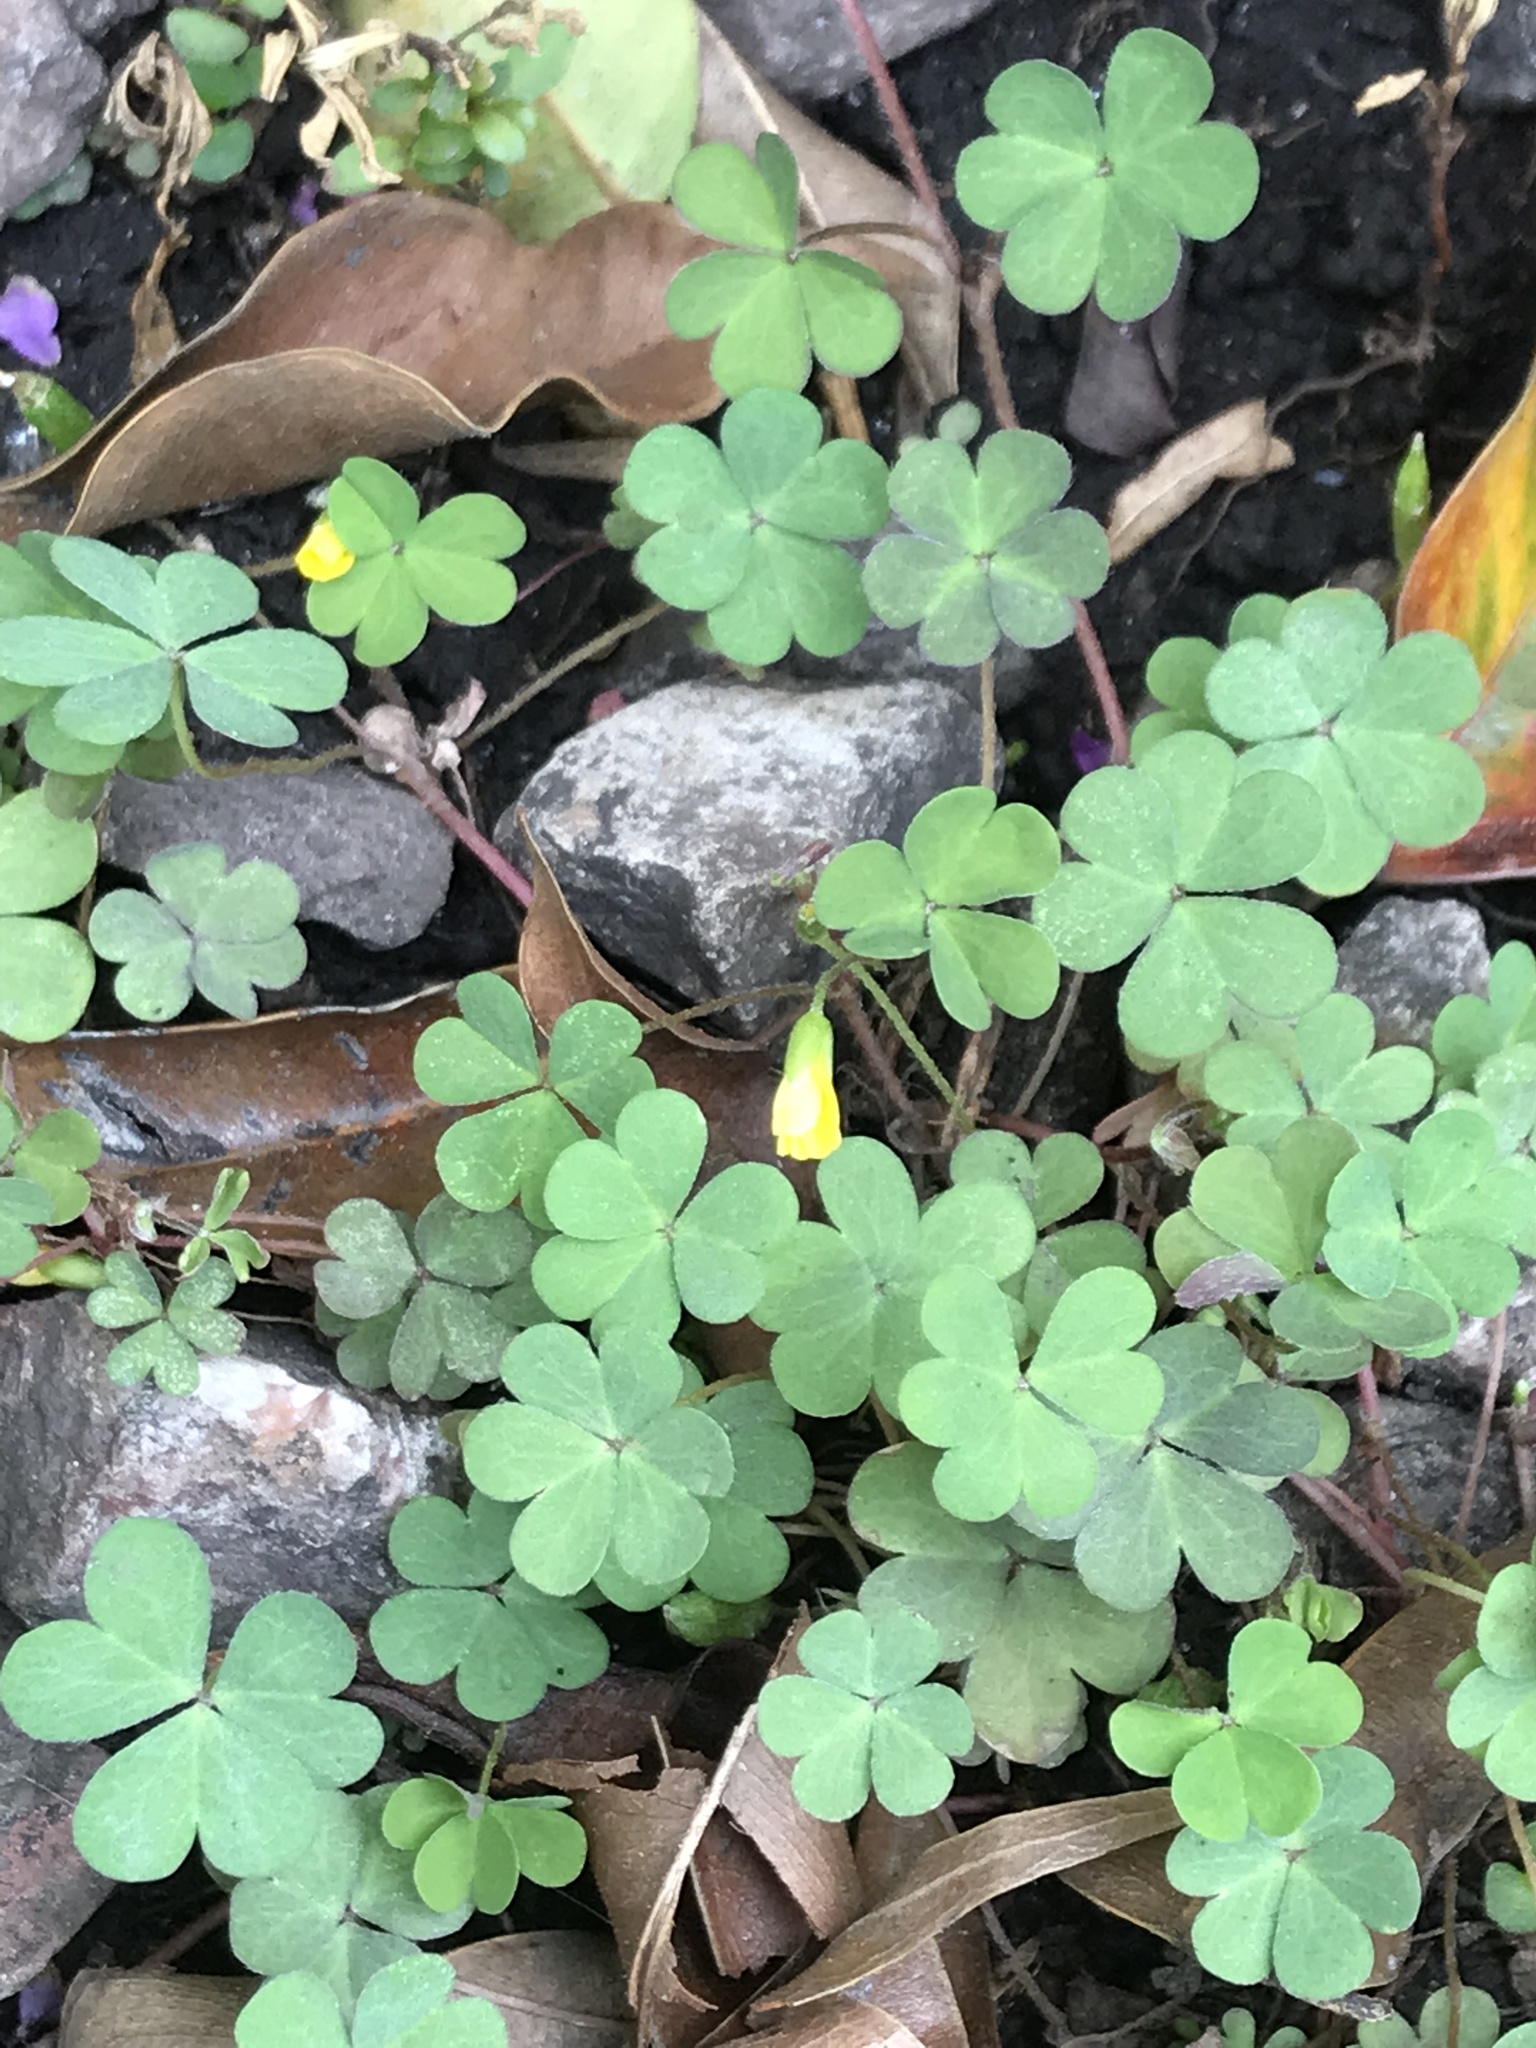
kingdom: Plantae
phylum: Tracheophyta
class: Magnoliopsida
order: Oxalidales
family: Oxalidaceae
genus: Oxalis
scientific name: Oxalis corniculata
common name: Procumbent yellow-sorrel
